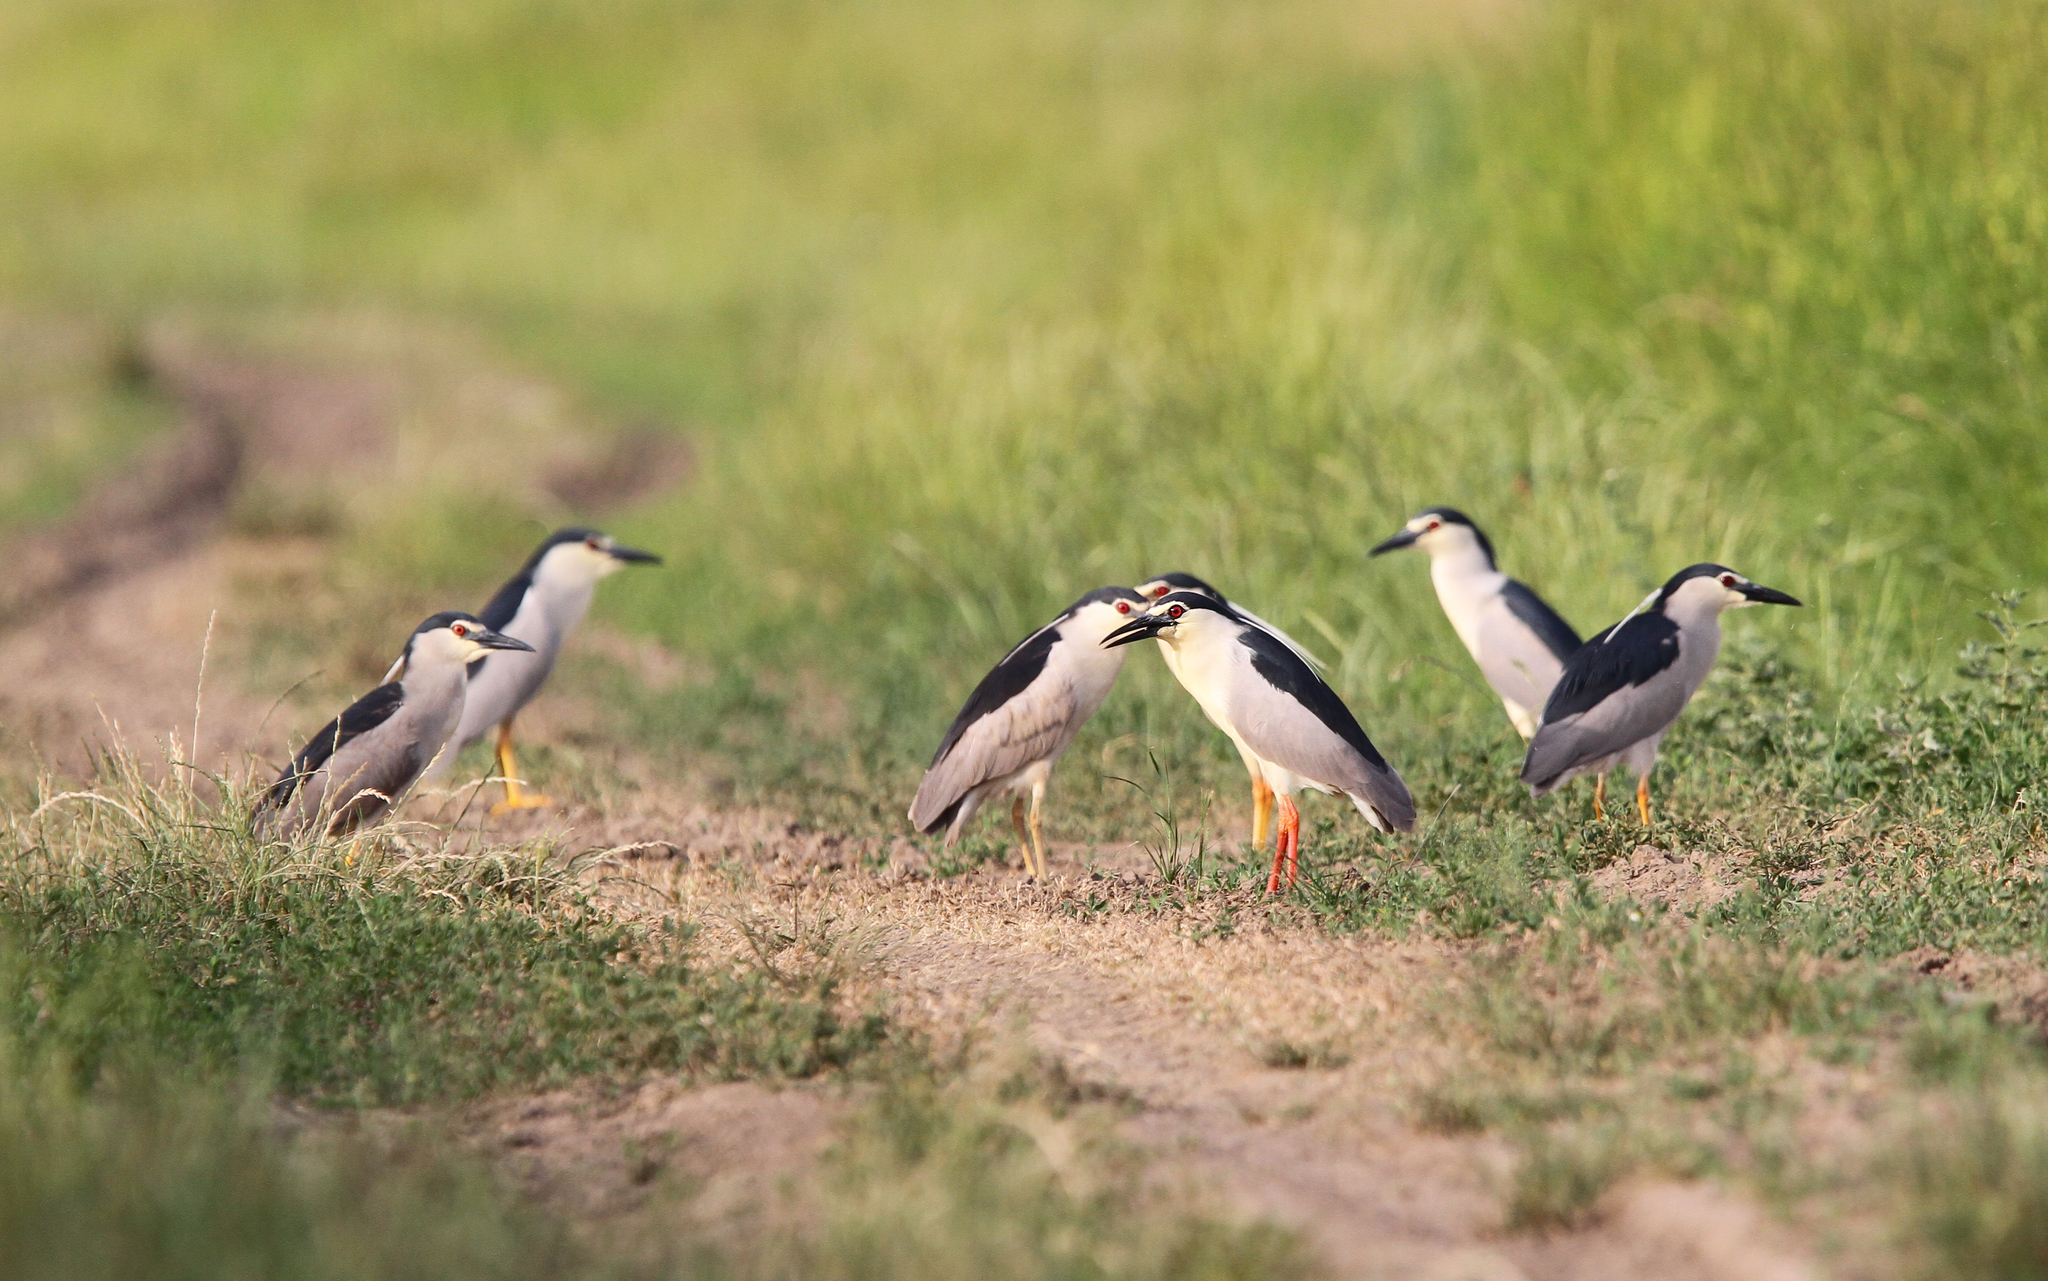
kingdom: Animalia
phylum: Chordata
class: Aves
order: Pelecaniformes
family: Ardeidae
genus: Nycticorax
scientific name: Nycticorax nycticorax
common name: Black-crowned night heron
